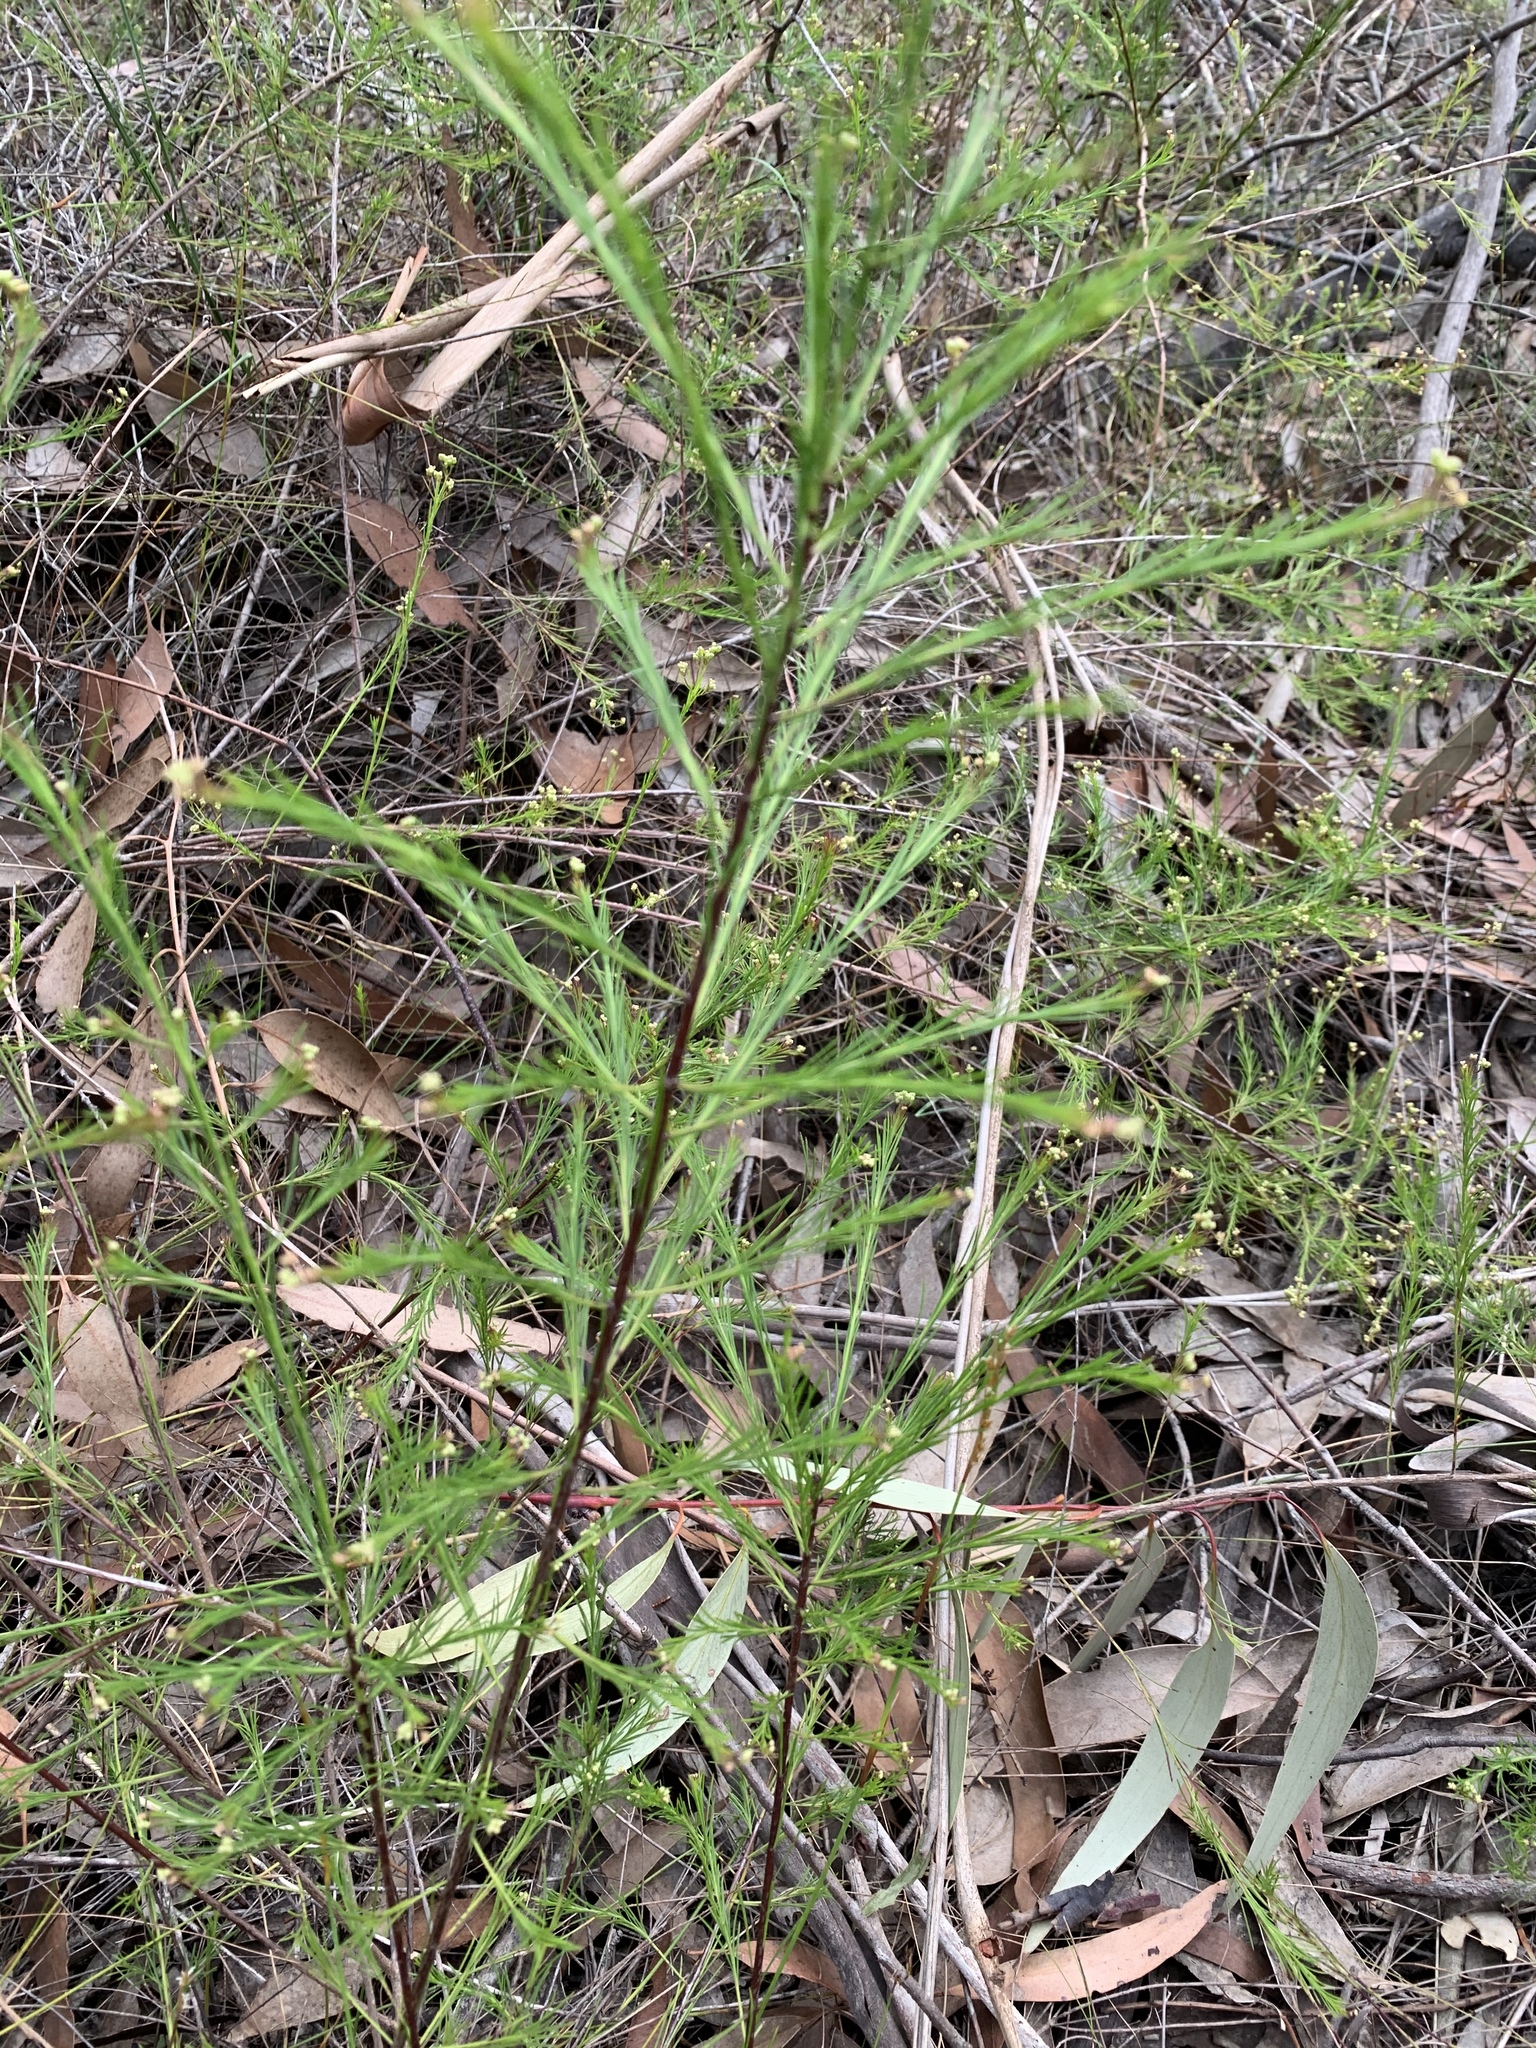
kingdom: Plantae
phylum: Tracheophyta
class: Magnoliopsida
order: Apiales
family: Apiaceae
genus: Platysace
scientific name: Platysace linearifolia
